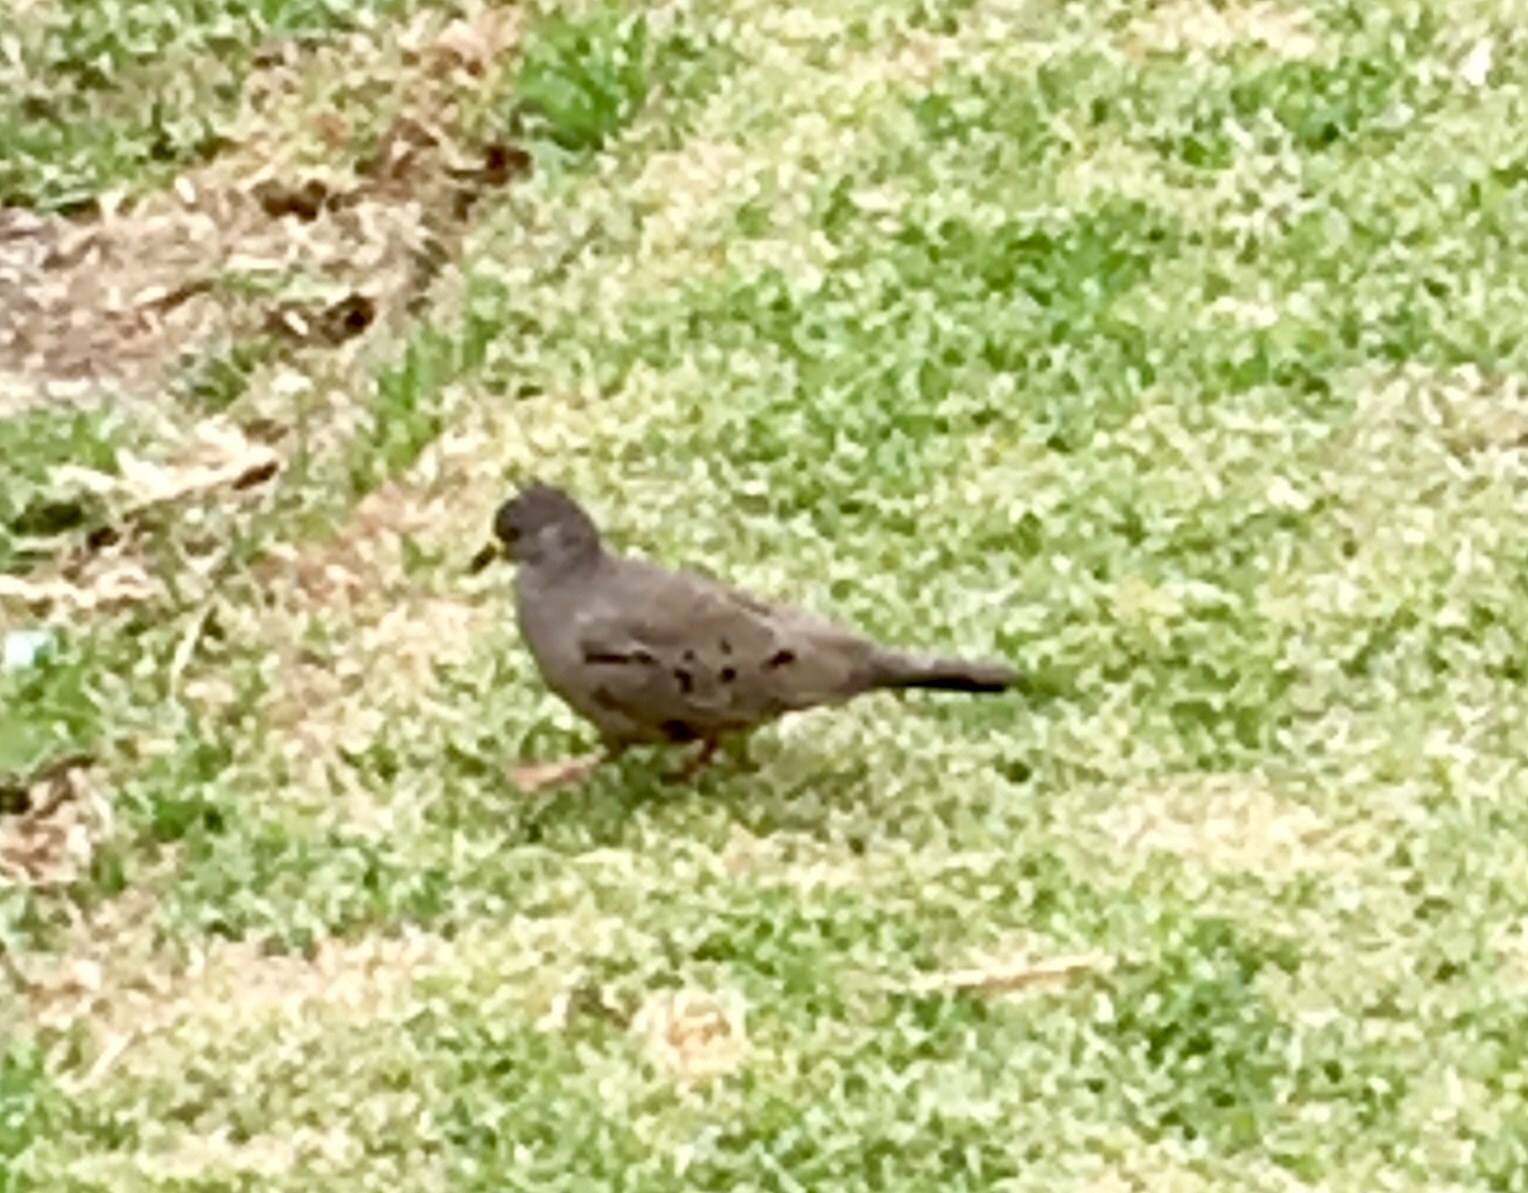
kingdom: Animalia
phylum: Chordata
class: Aves
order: Columbiformes
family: Columbidae
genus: Columbina
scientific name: Columbina cruziana
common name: Croaking ground dove
